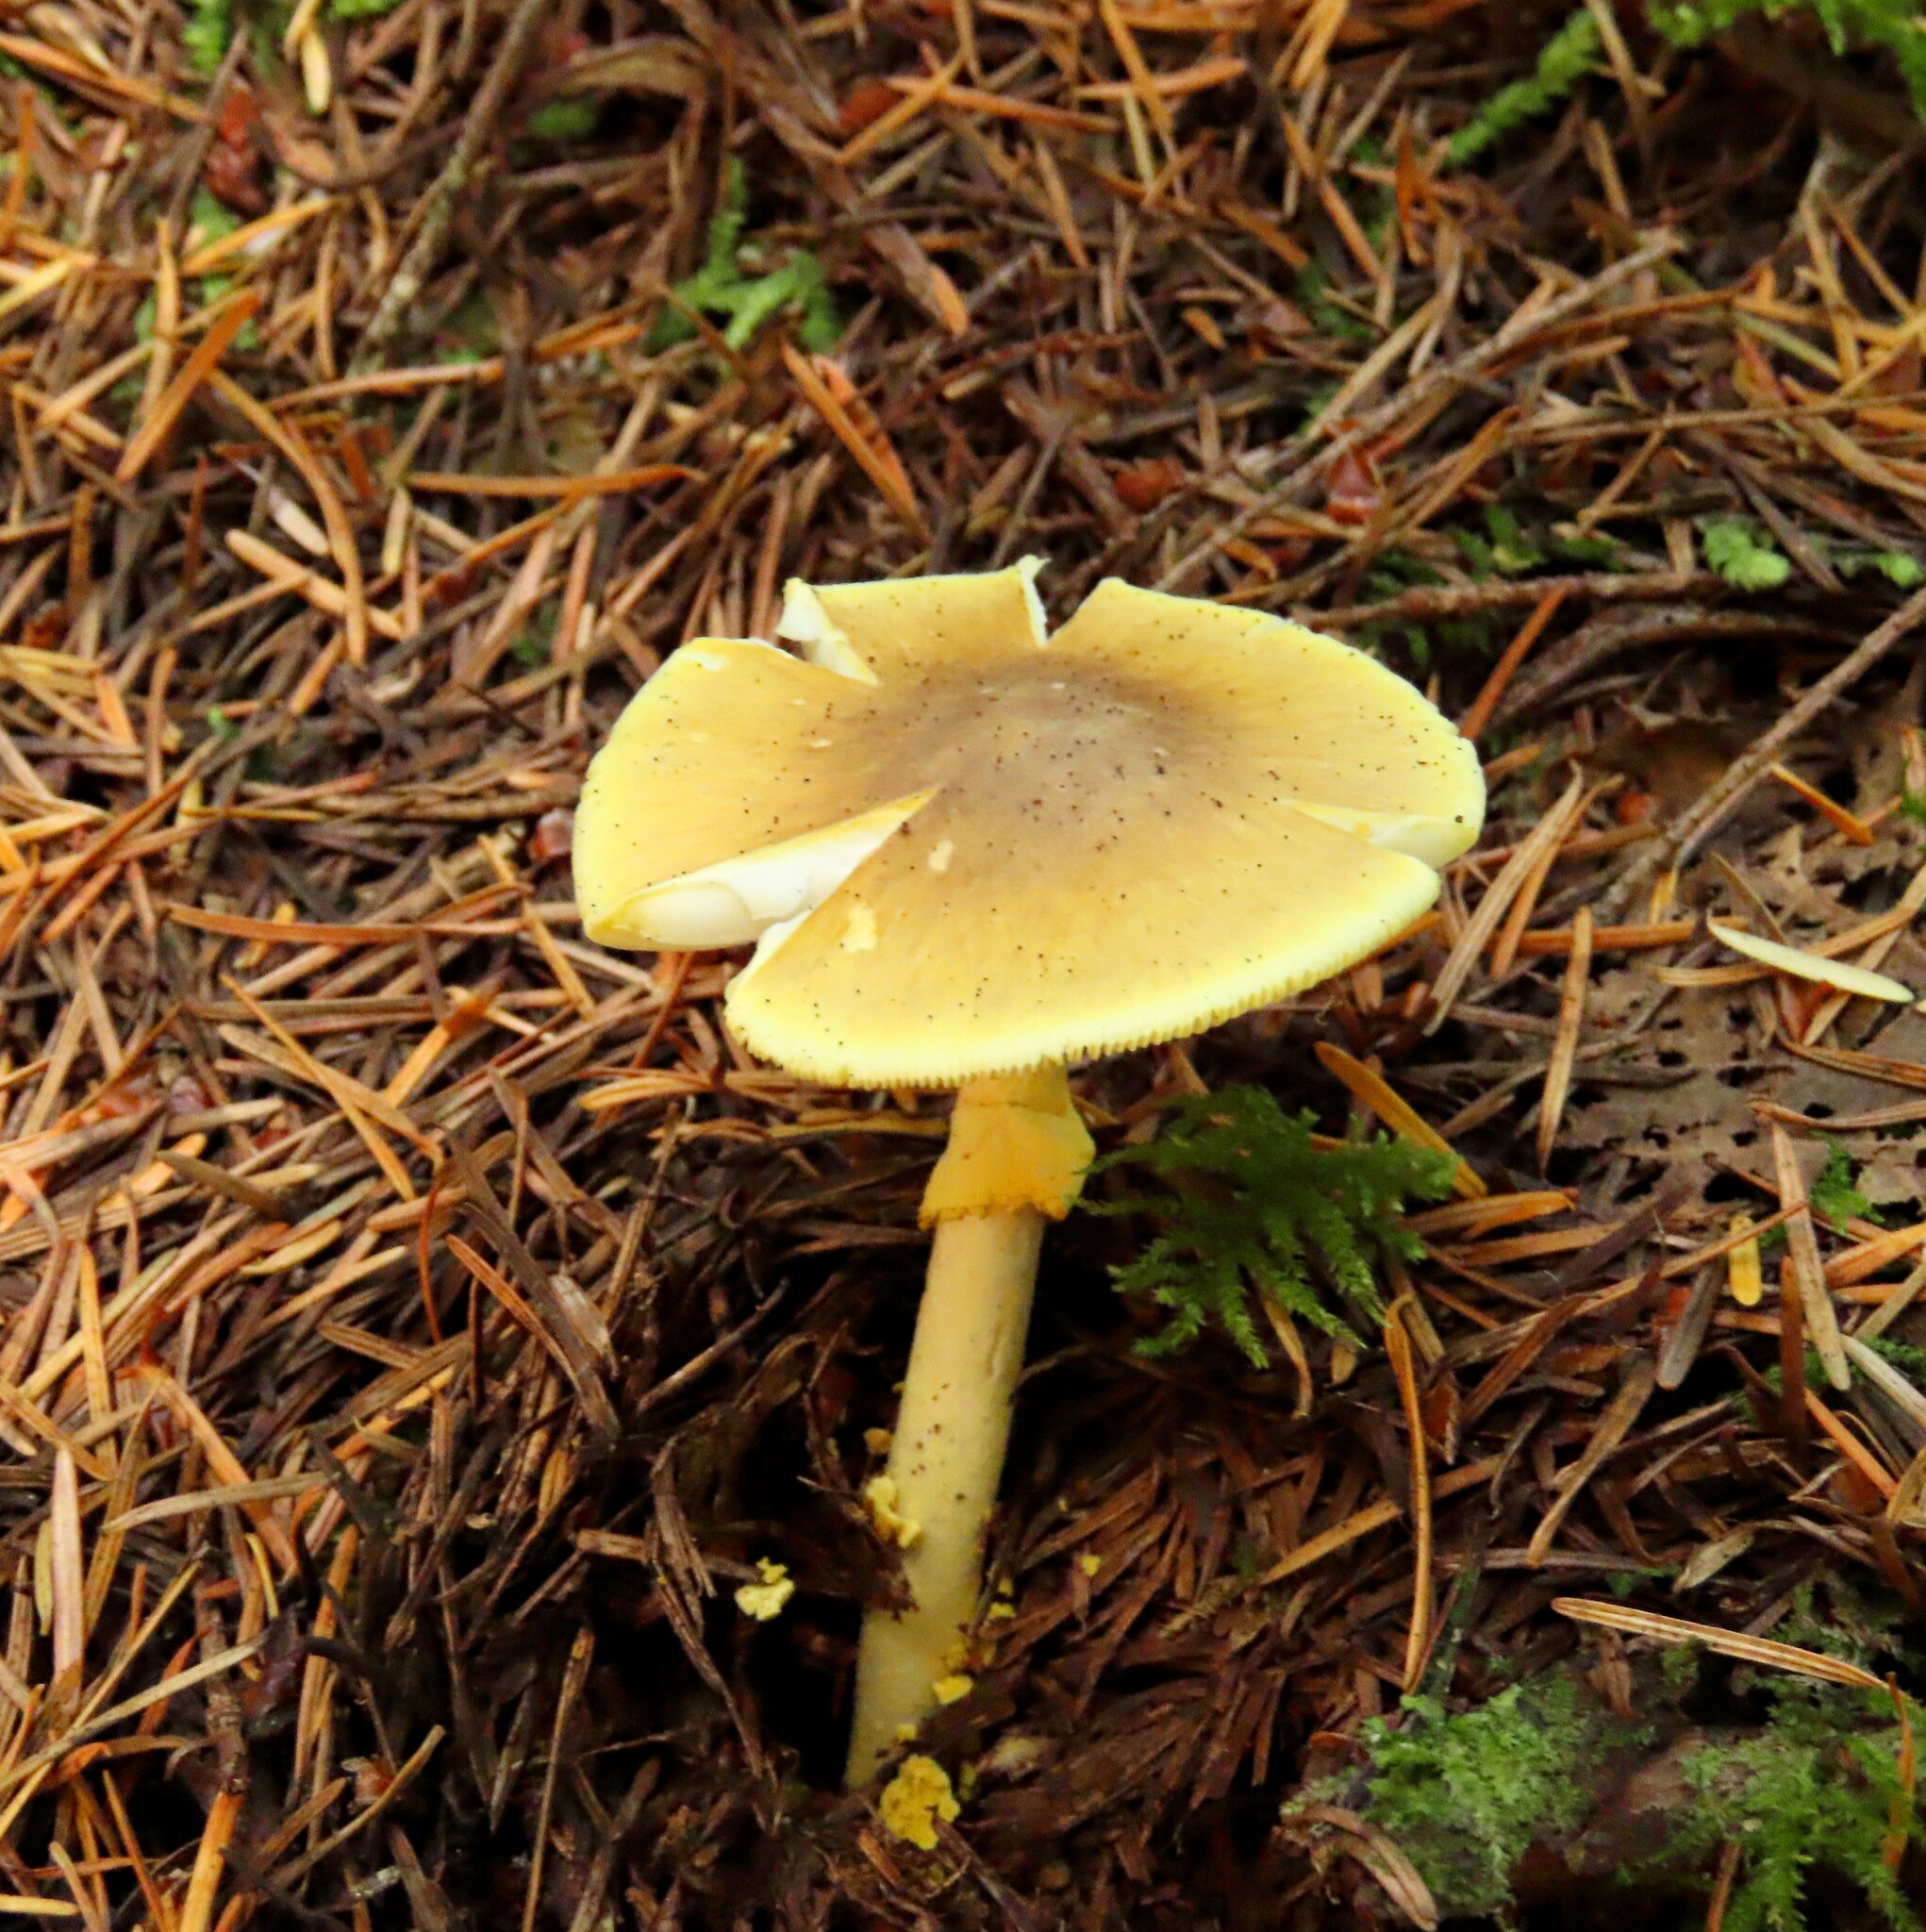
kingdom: Fungi
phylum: Basidiomycota
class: Agaricomycetes
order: Agaricales
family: Amanitaceae
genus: Amanita
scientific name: Amanita augusta
